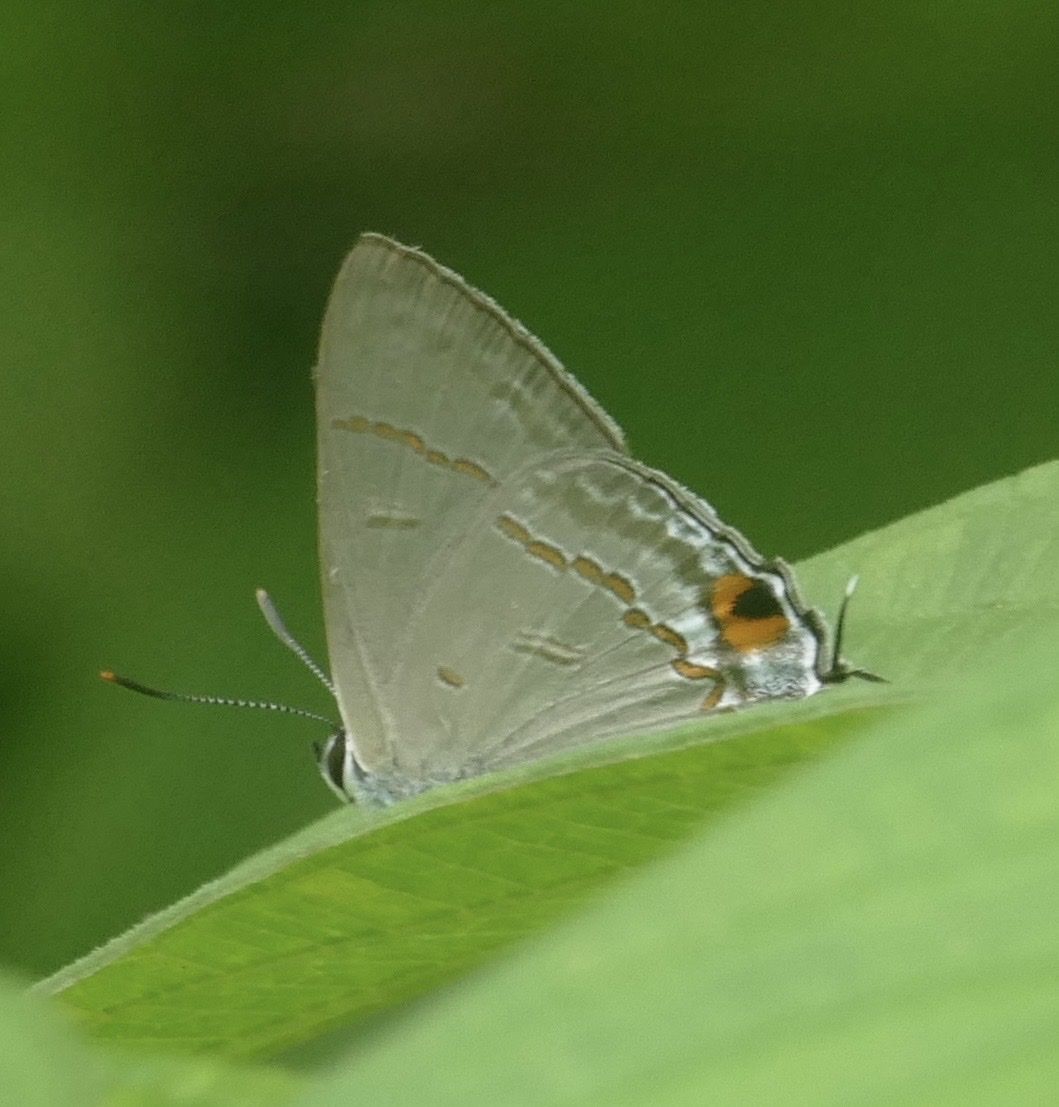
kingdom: Animalia
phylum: Arthropoda
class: Insecta
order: Lepidoptera
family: Lycaenidae
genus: Hypolycaena
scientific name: Hypolycaena erylus
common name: Common tit
